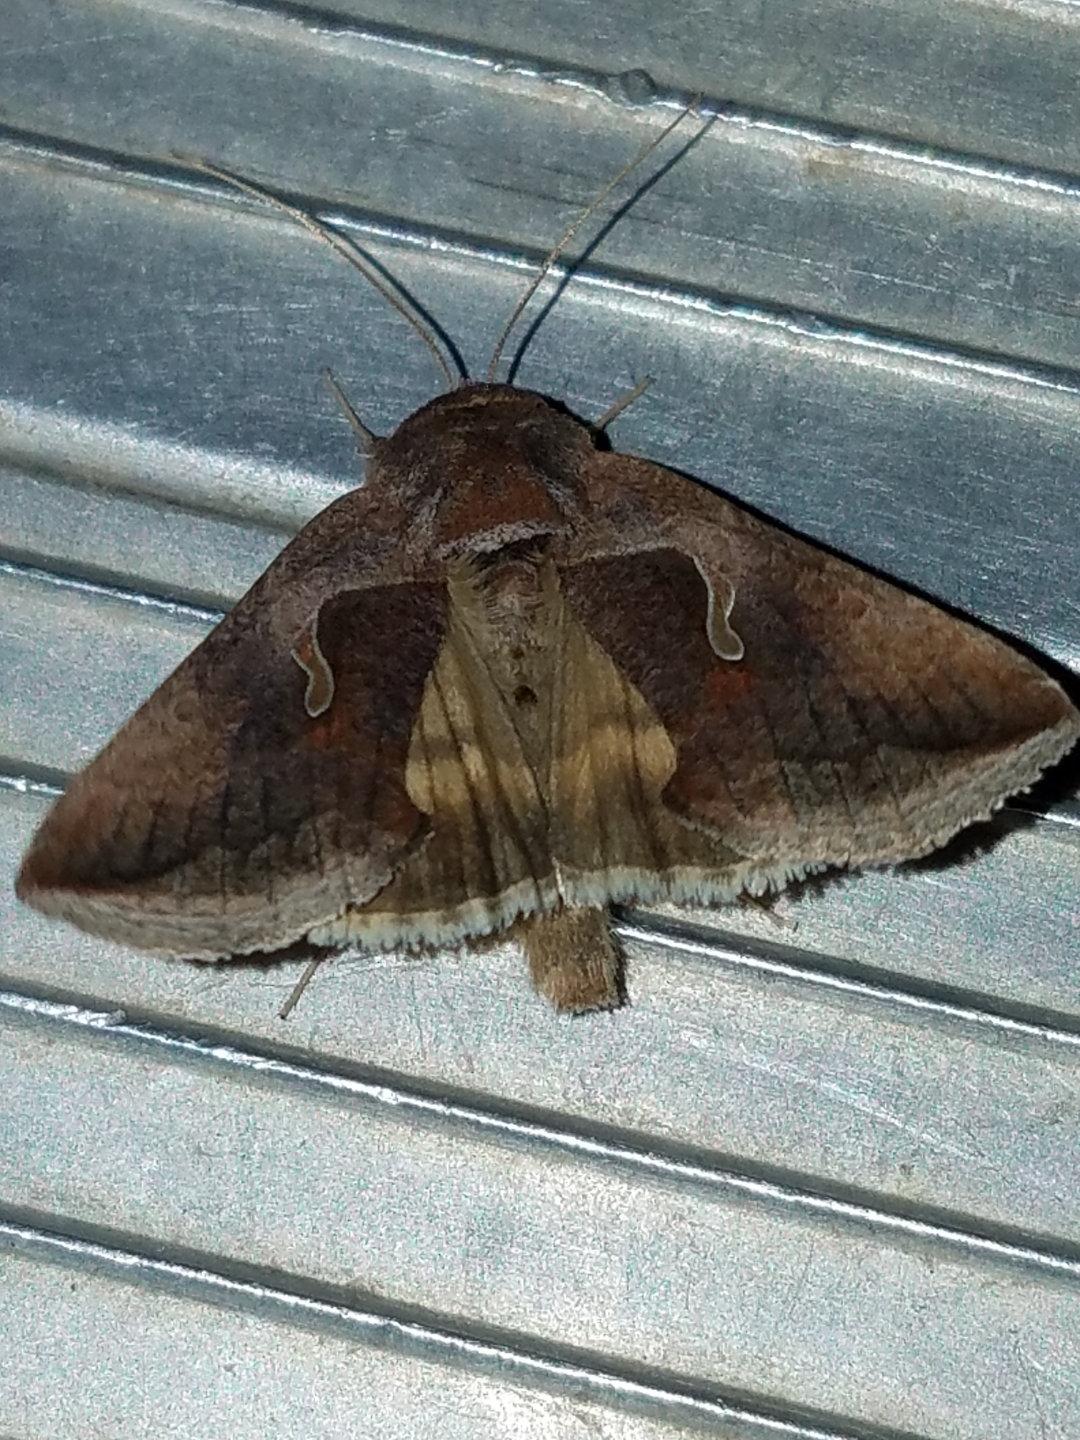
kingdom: Animalia
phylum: Arthropoda
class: Insecta
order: Lepidoptera
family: Noctuidae
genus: Anagrapha
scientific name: Anagrapha falcifera
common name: Celery looper
